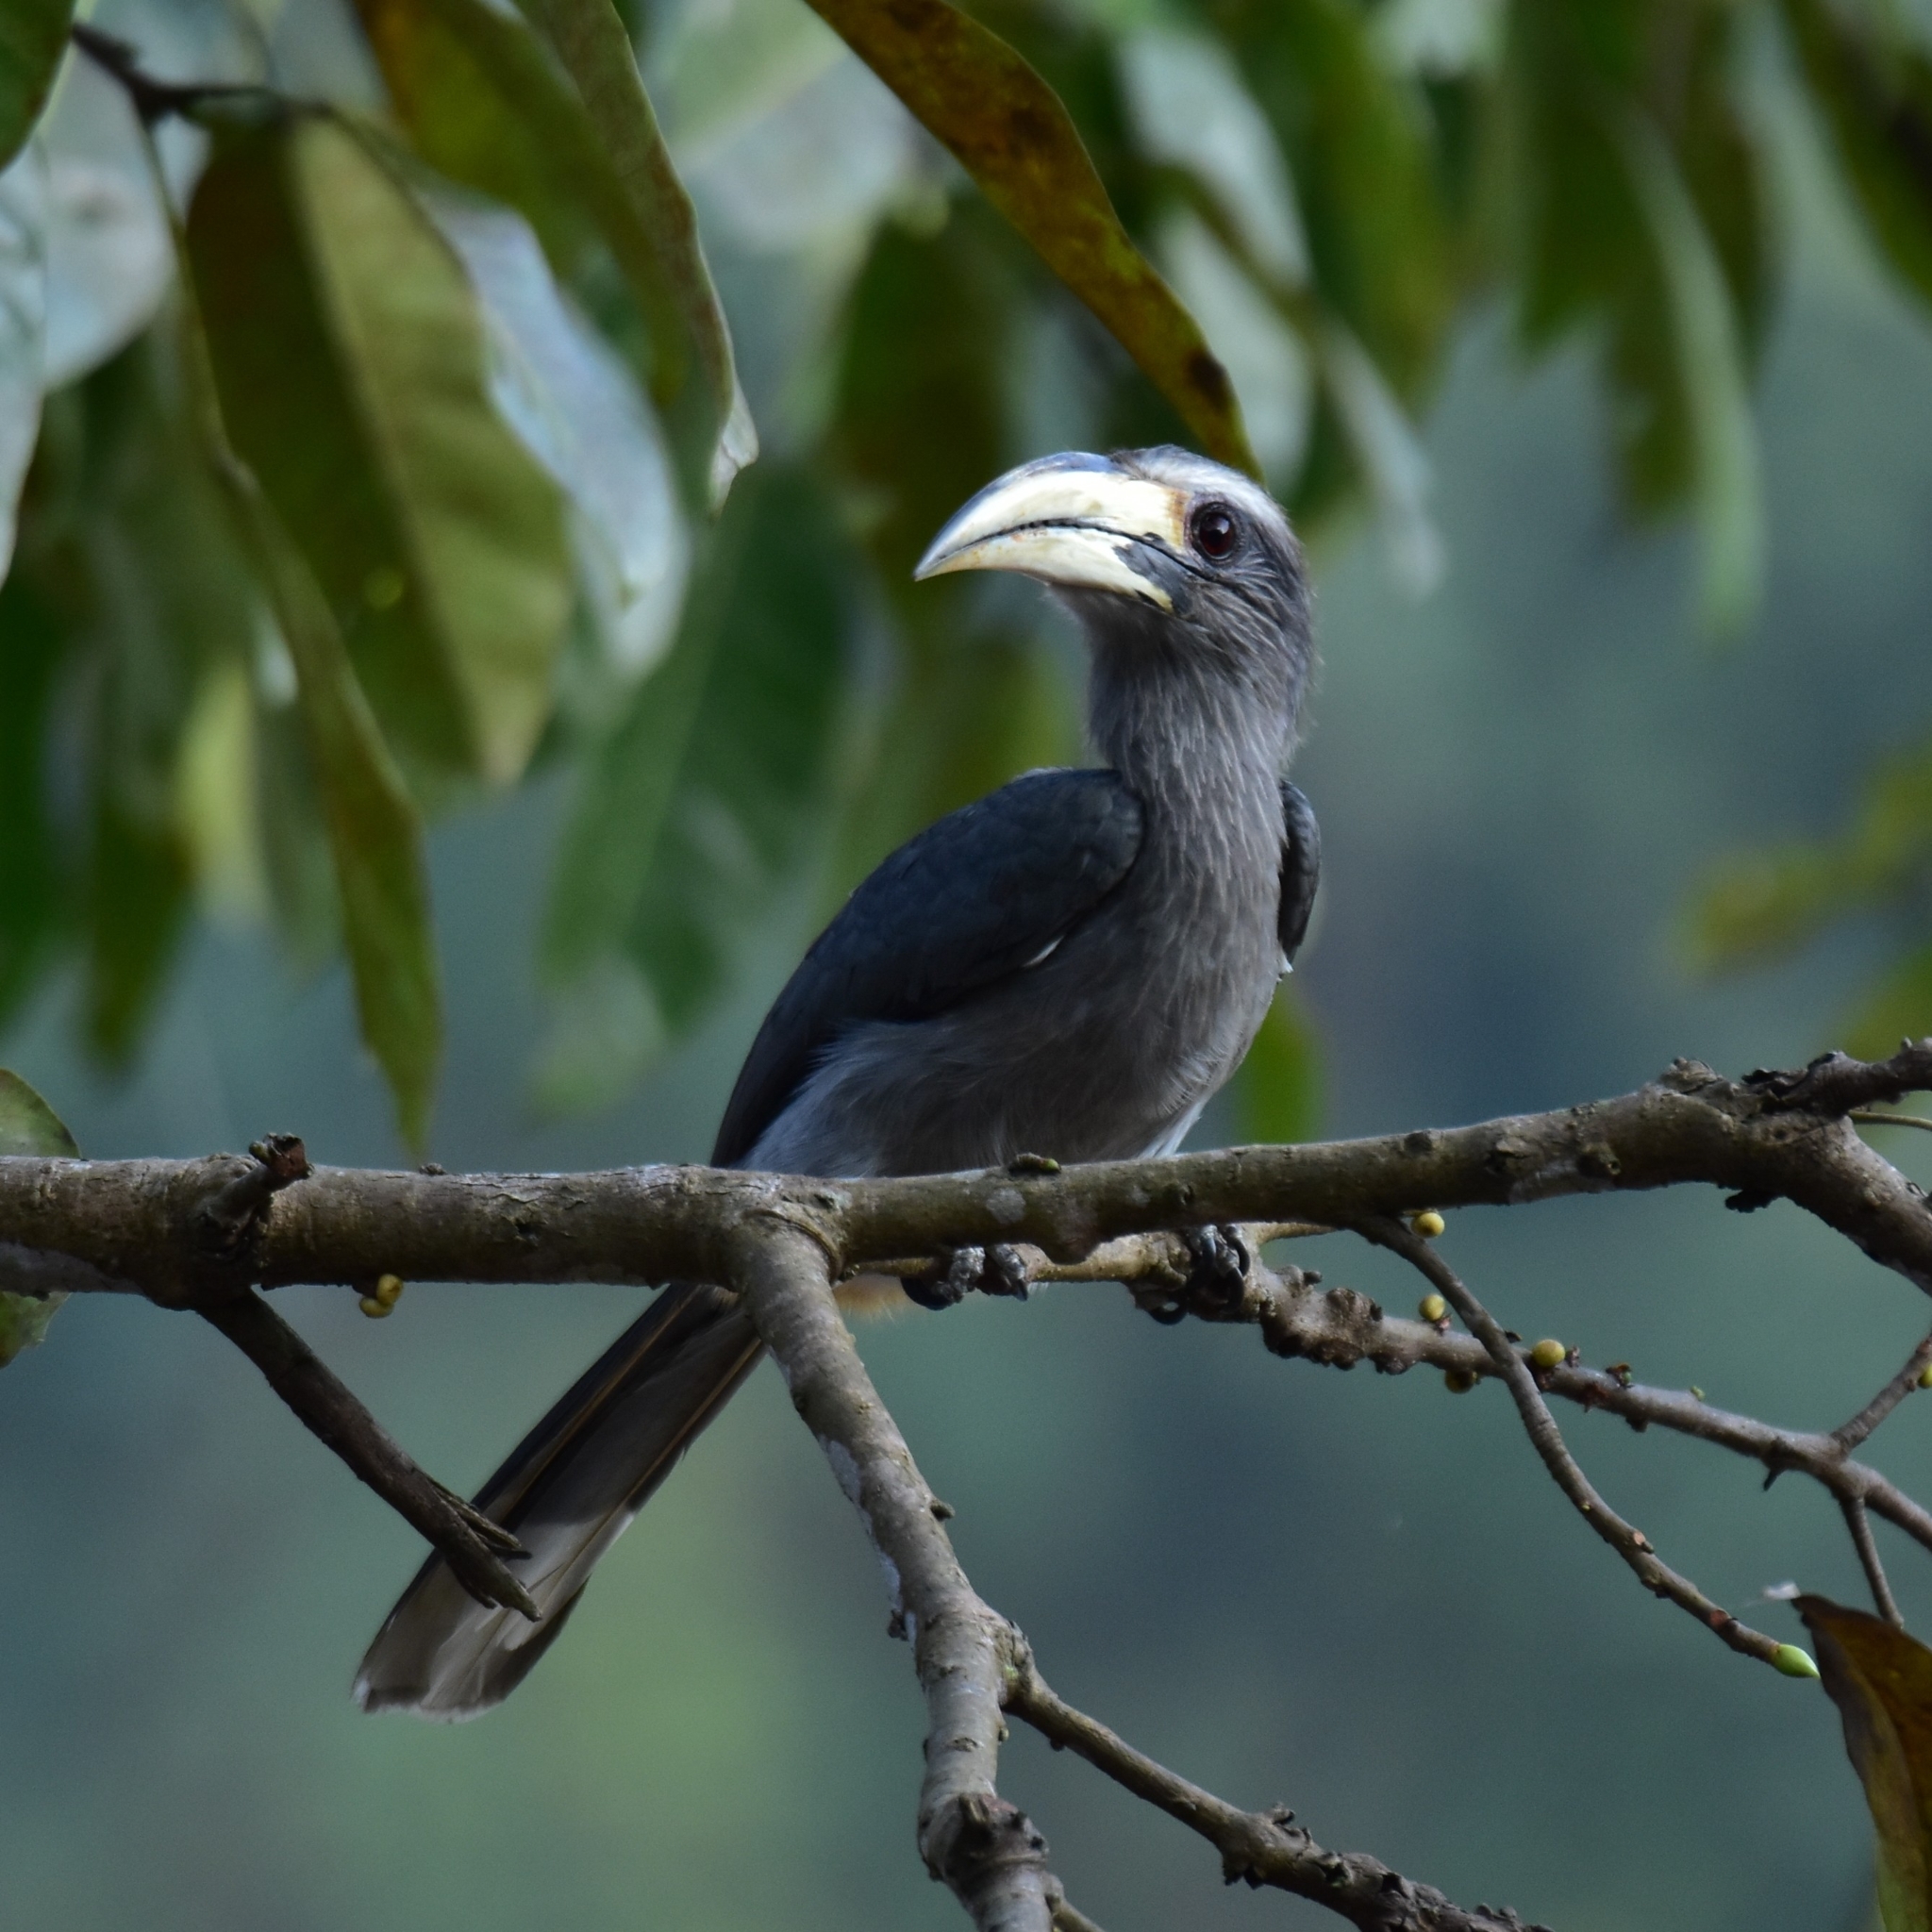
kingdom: Animalia
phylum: Chordata
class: Aves
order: Bucerotiformes
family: Bucerotidae
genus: Ocyceros
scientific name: Ocyceros griseus
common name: Malabar grey hornbill
